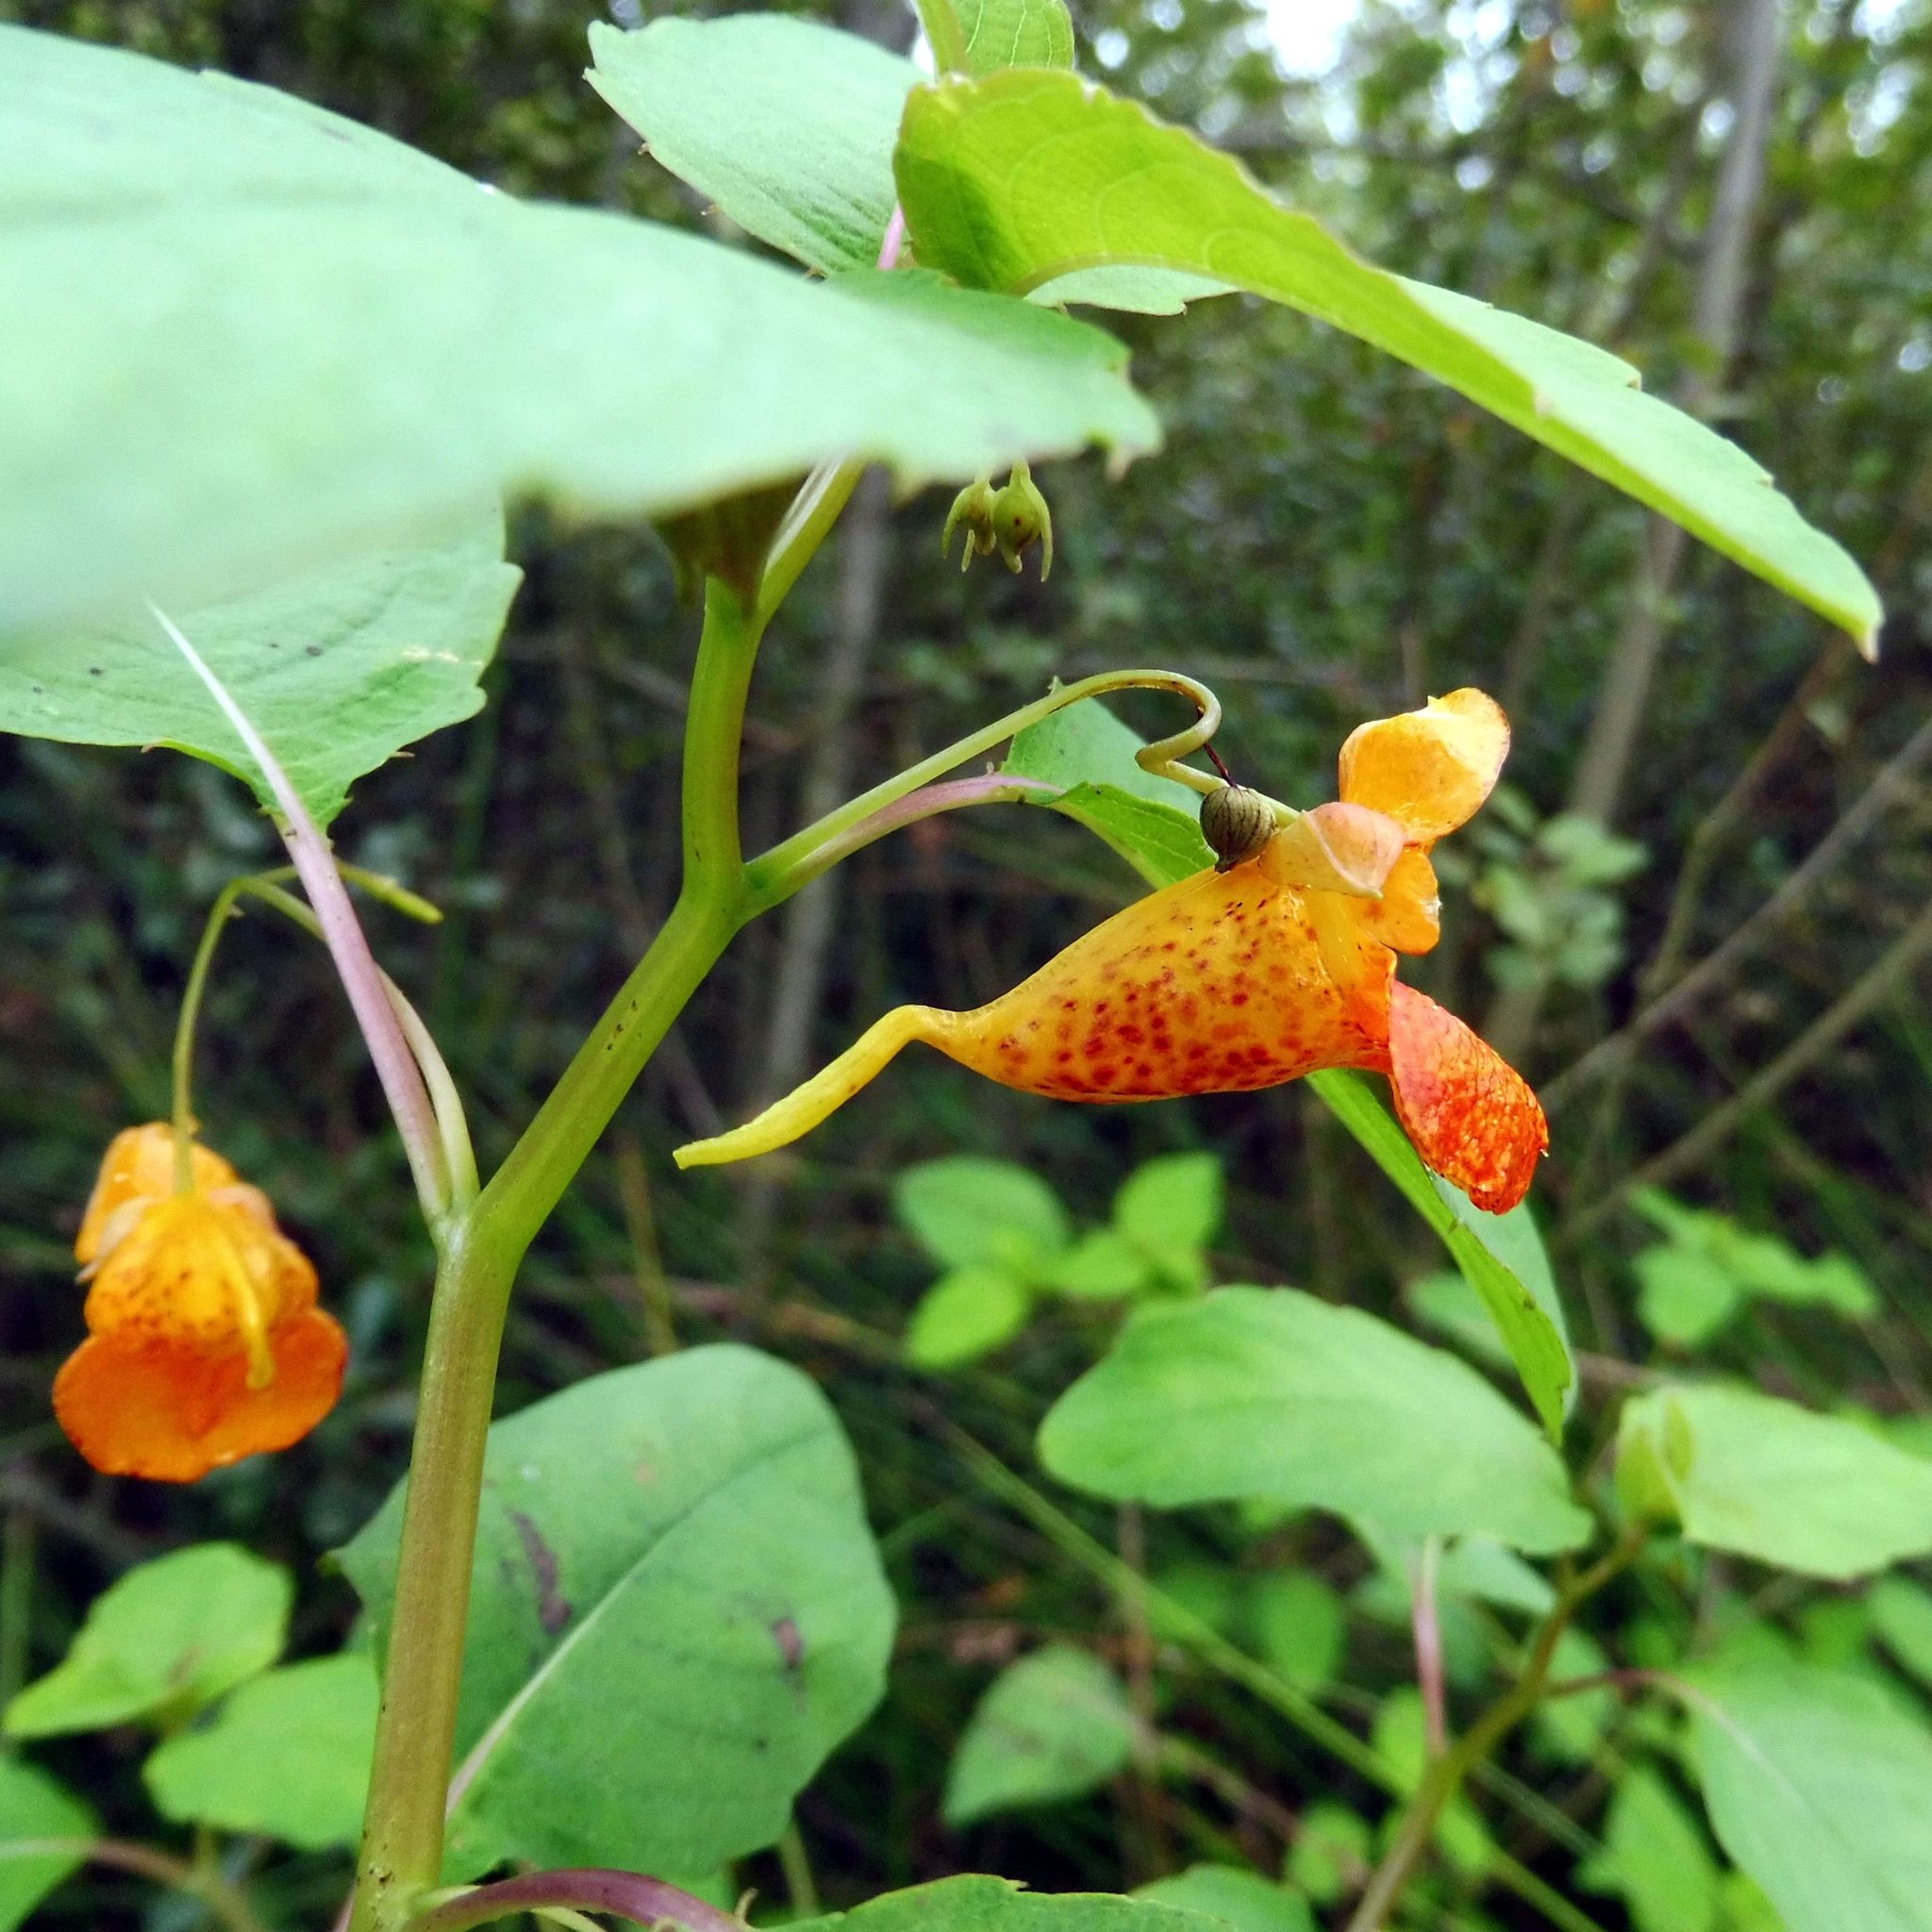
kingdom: Plantae
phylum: Tracheophyta
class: Magnoliopsida
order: Ericales
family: Balsaminaceae
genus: Impatiens
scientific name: Impatiens capensis
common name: Orange balsam
